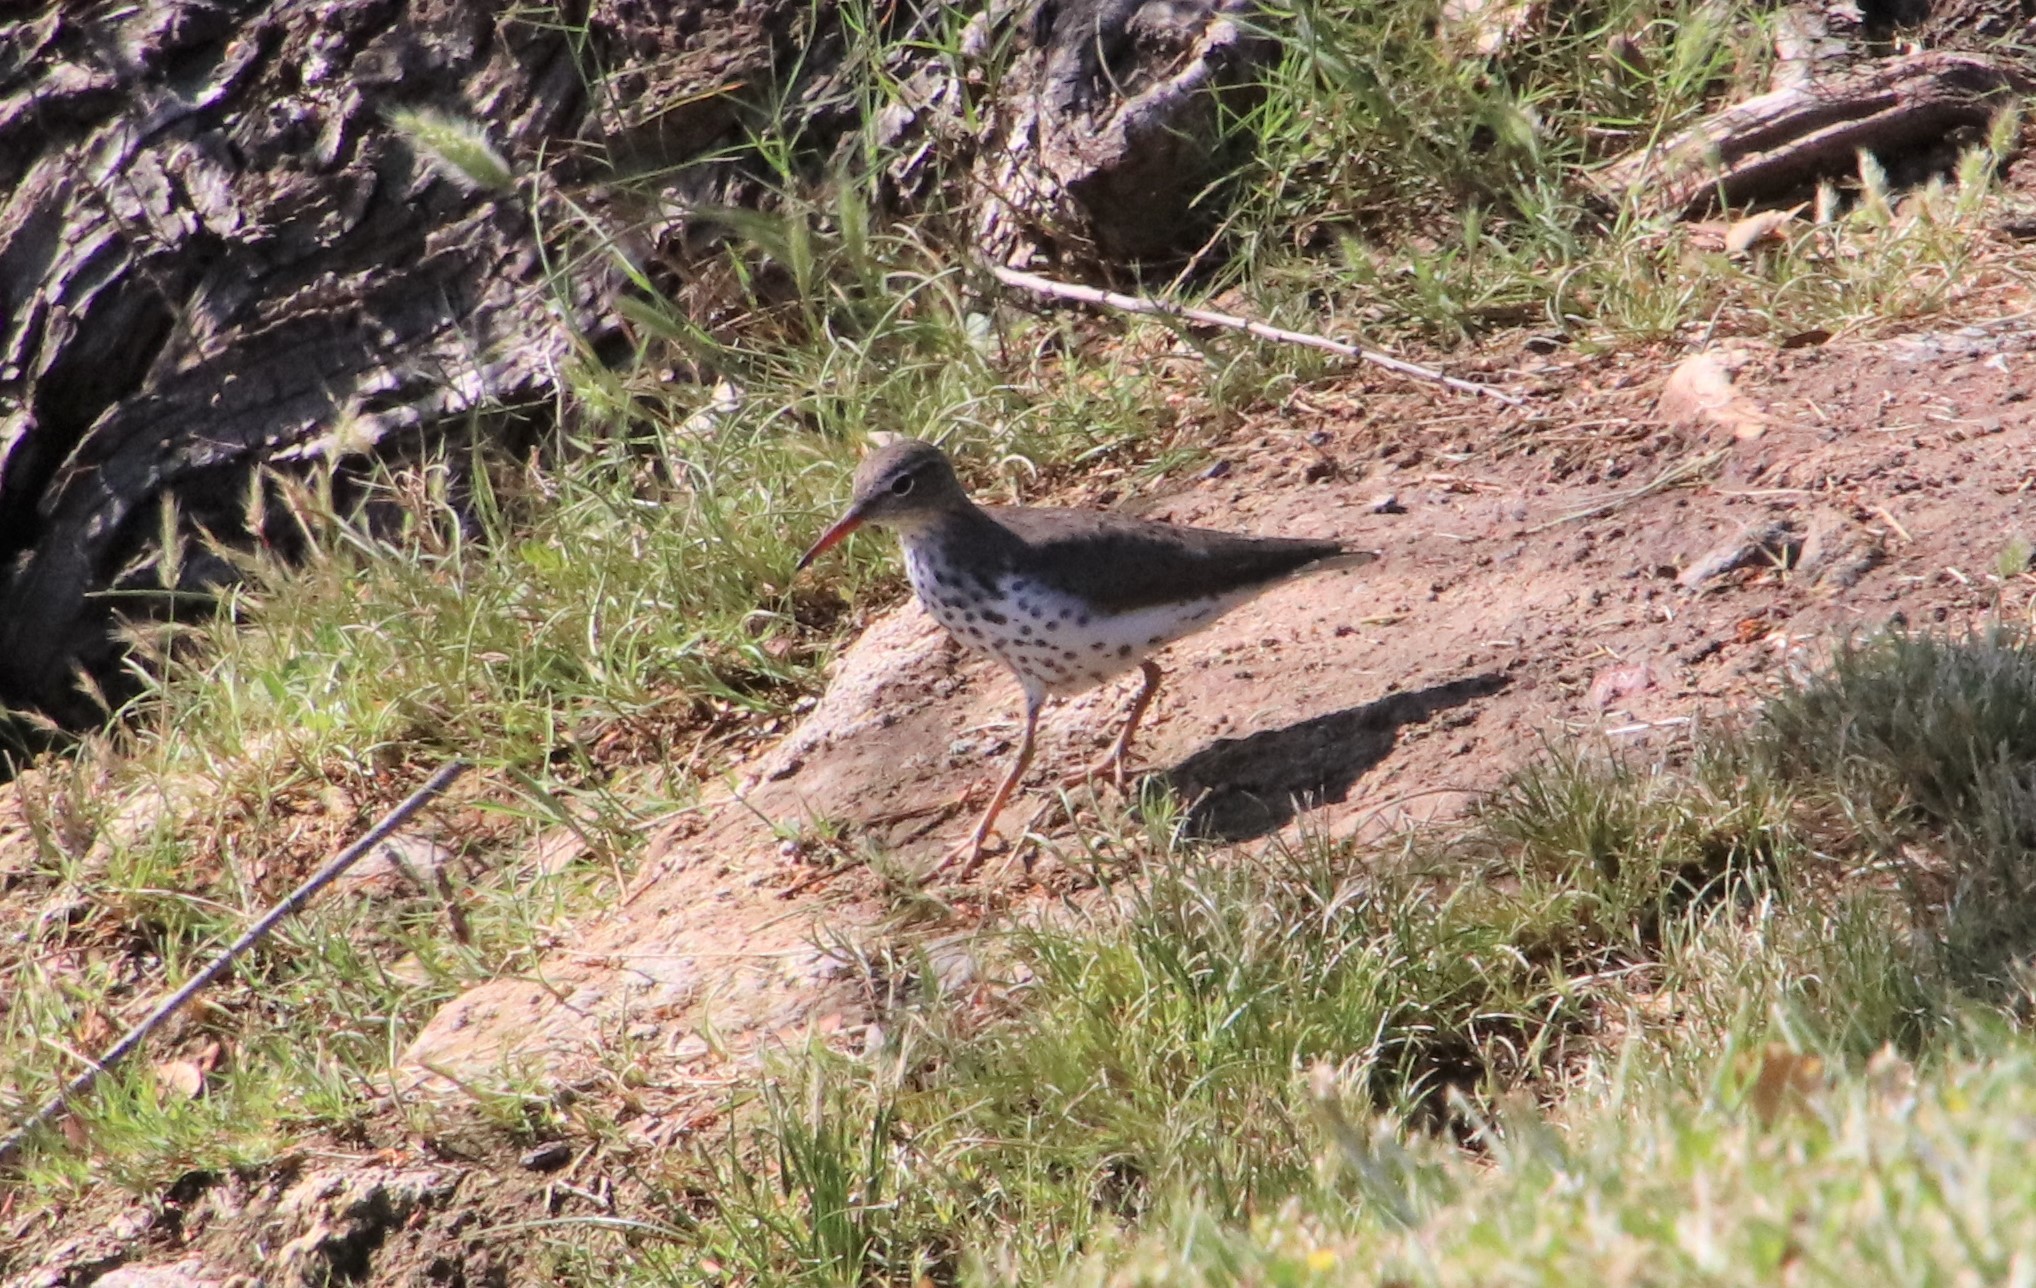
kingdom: Animalia
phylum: Chordata
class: Aves
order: Charadriiformes
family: Scolopacidae
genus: Actitis
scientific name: Actitis macularius
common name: Spotted sandpiper
